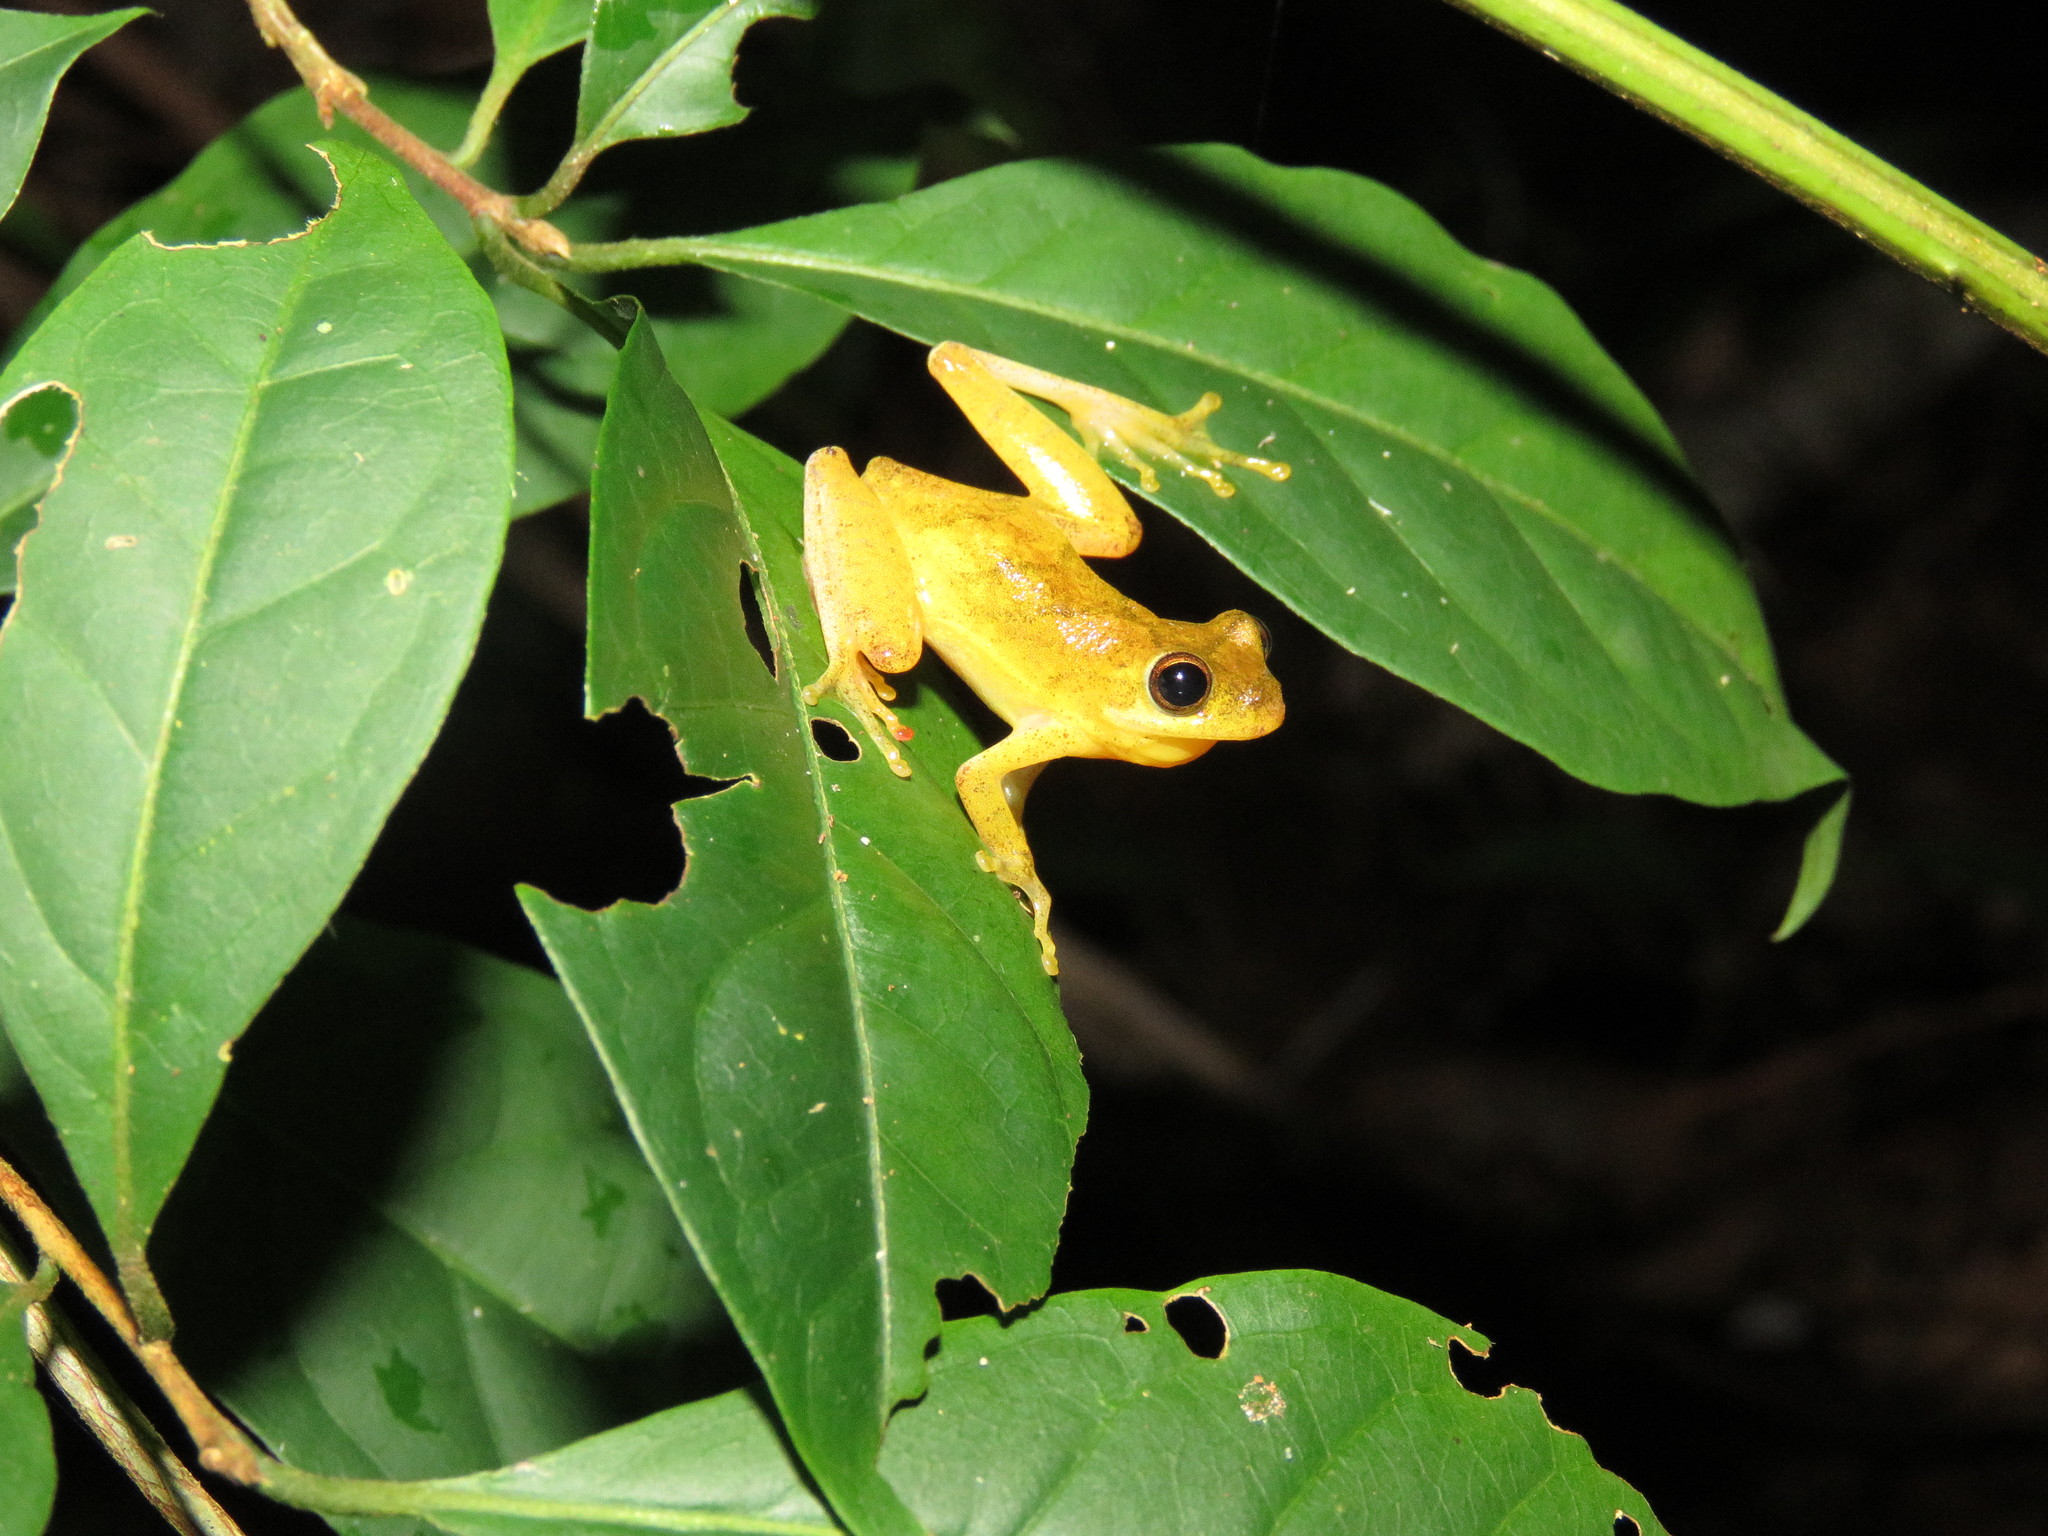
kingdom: Animalia
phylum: Chordata
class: Amphibia
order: Anura
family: Hylidae
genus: Dendropsophus
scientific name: Dendropsophus minutus
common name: Lesser treefrog
